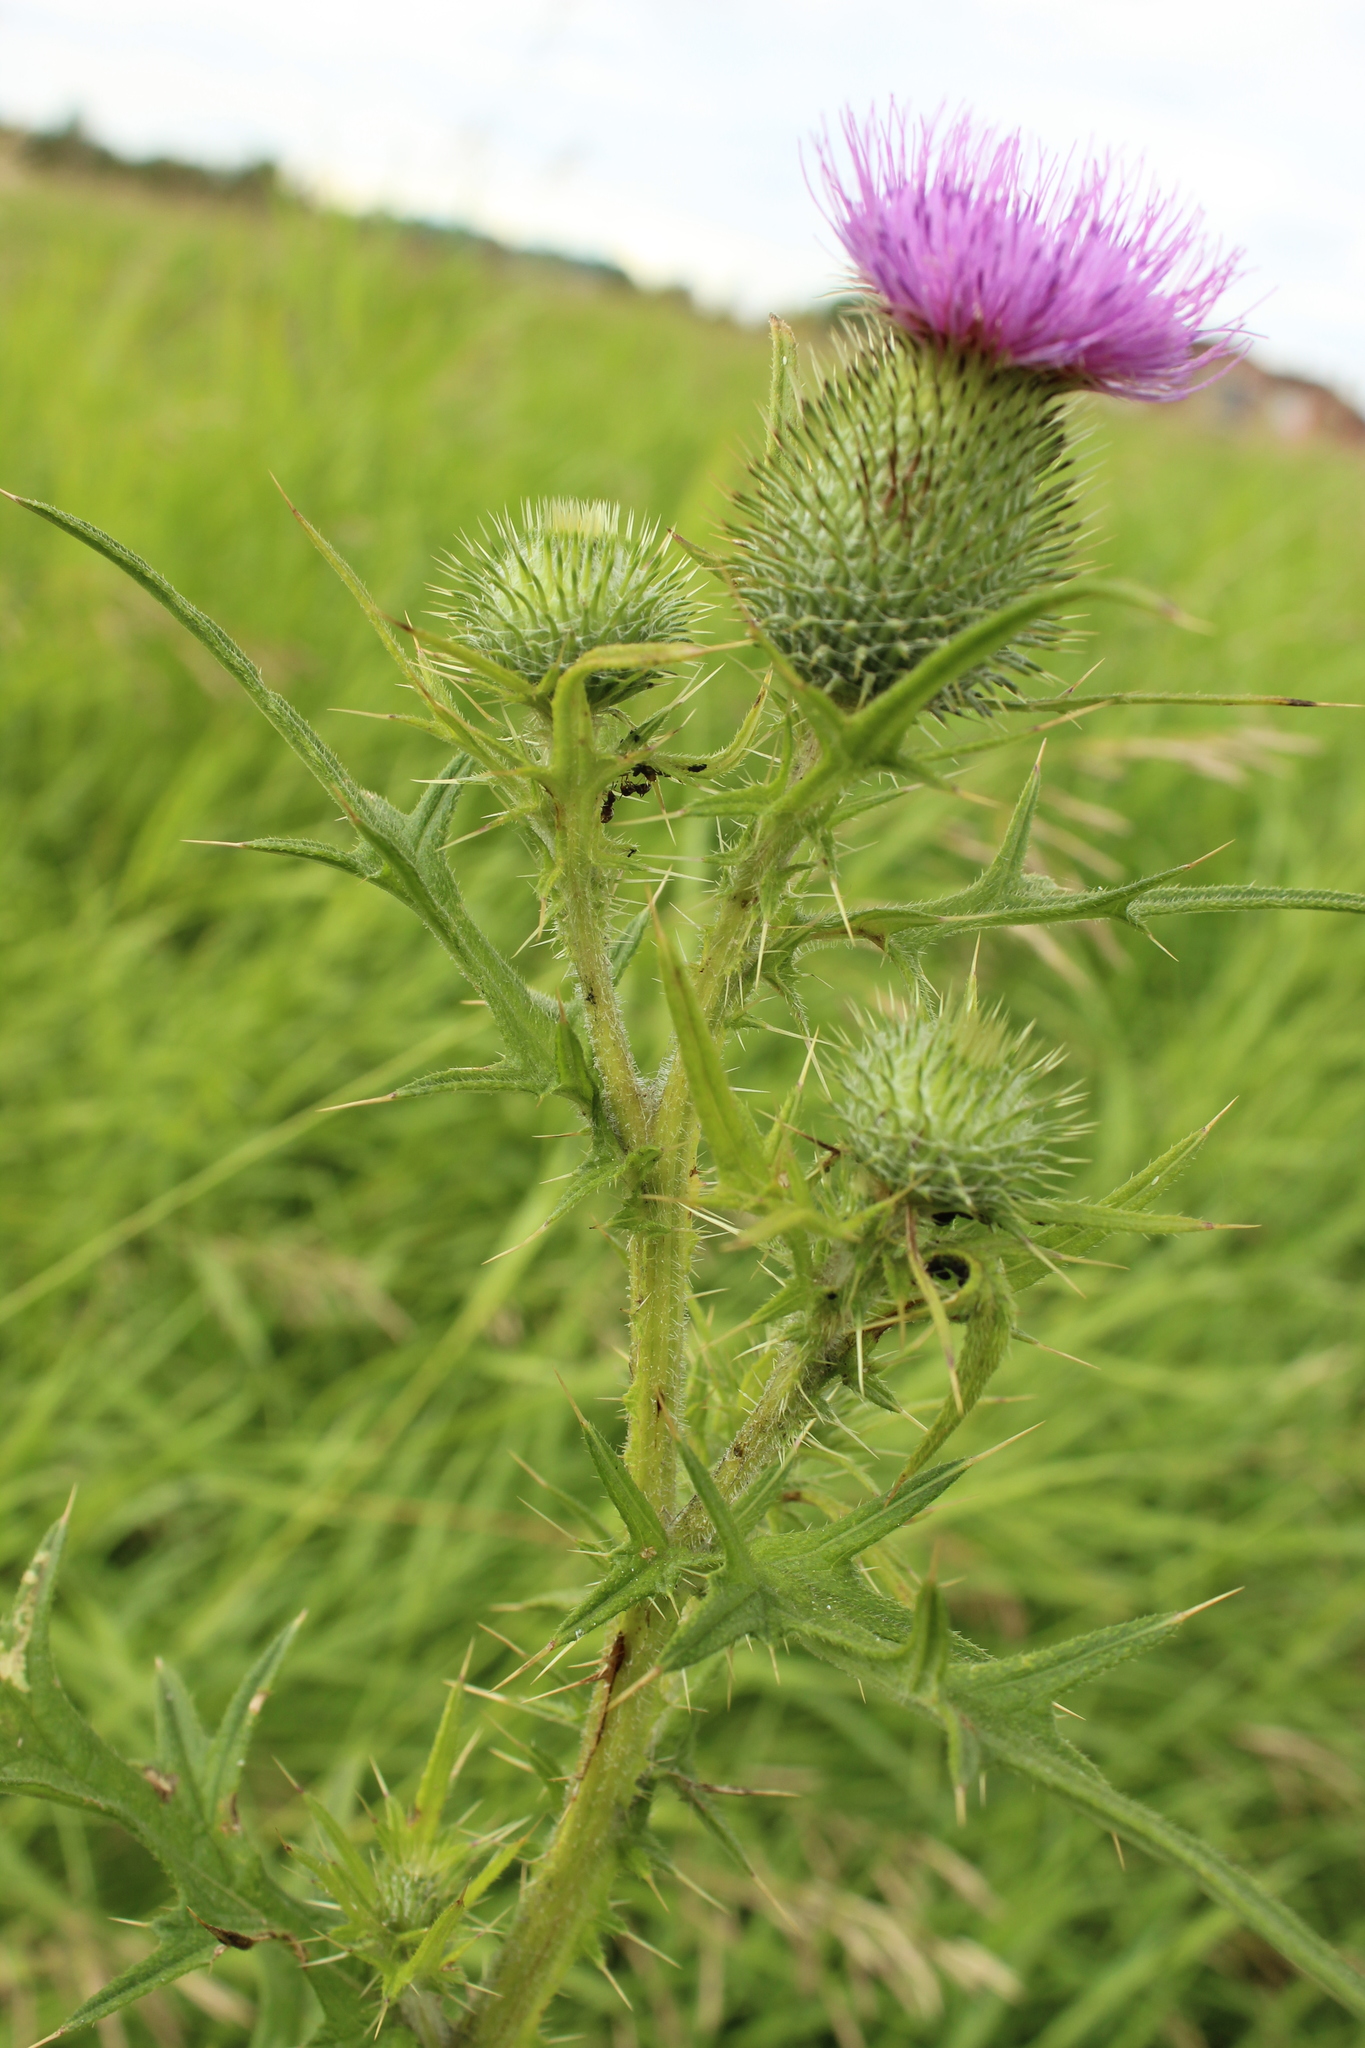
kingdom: Plantae
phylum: Tracheophyta
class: Magnoliopsida
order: Asterales
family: Asteraceae
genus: Cirsium
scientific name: Cirsium vulgare
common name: Bull thistle
